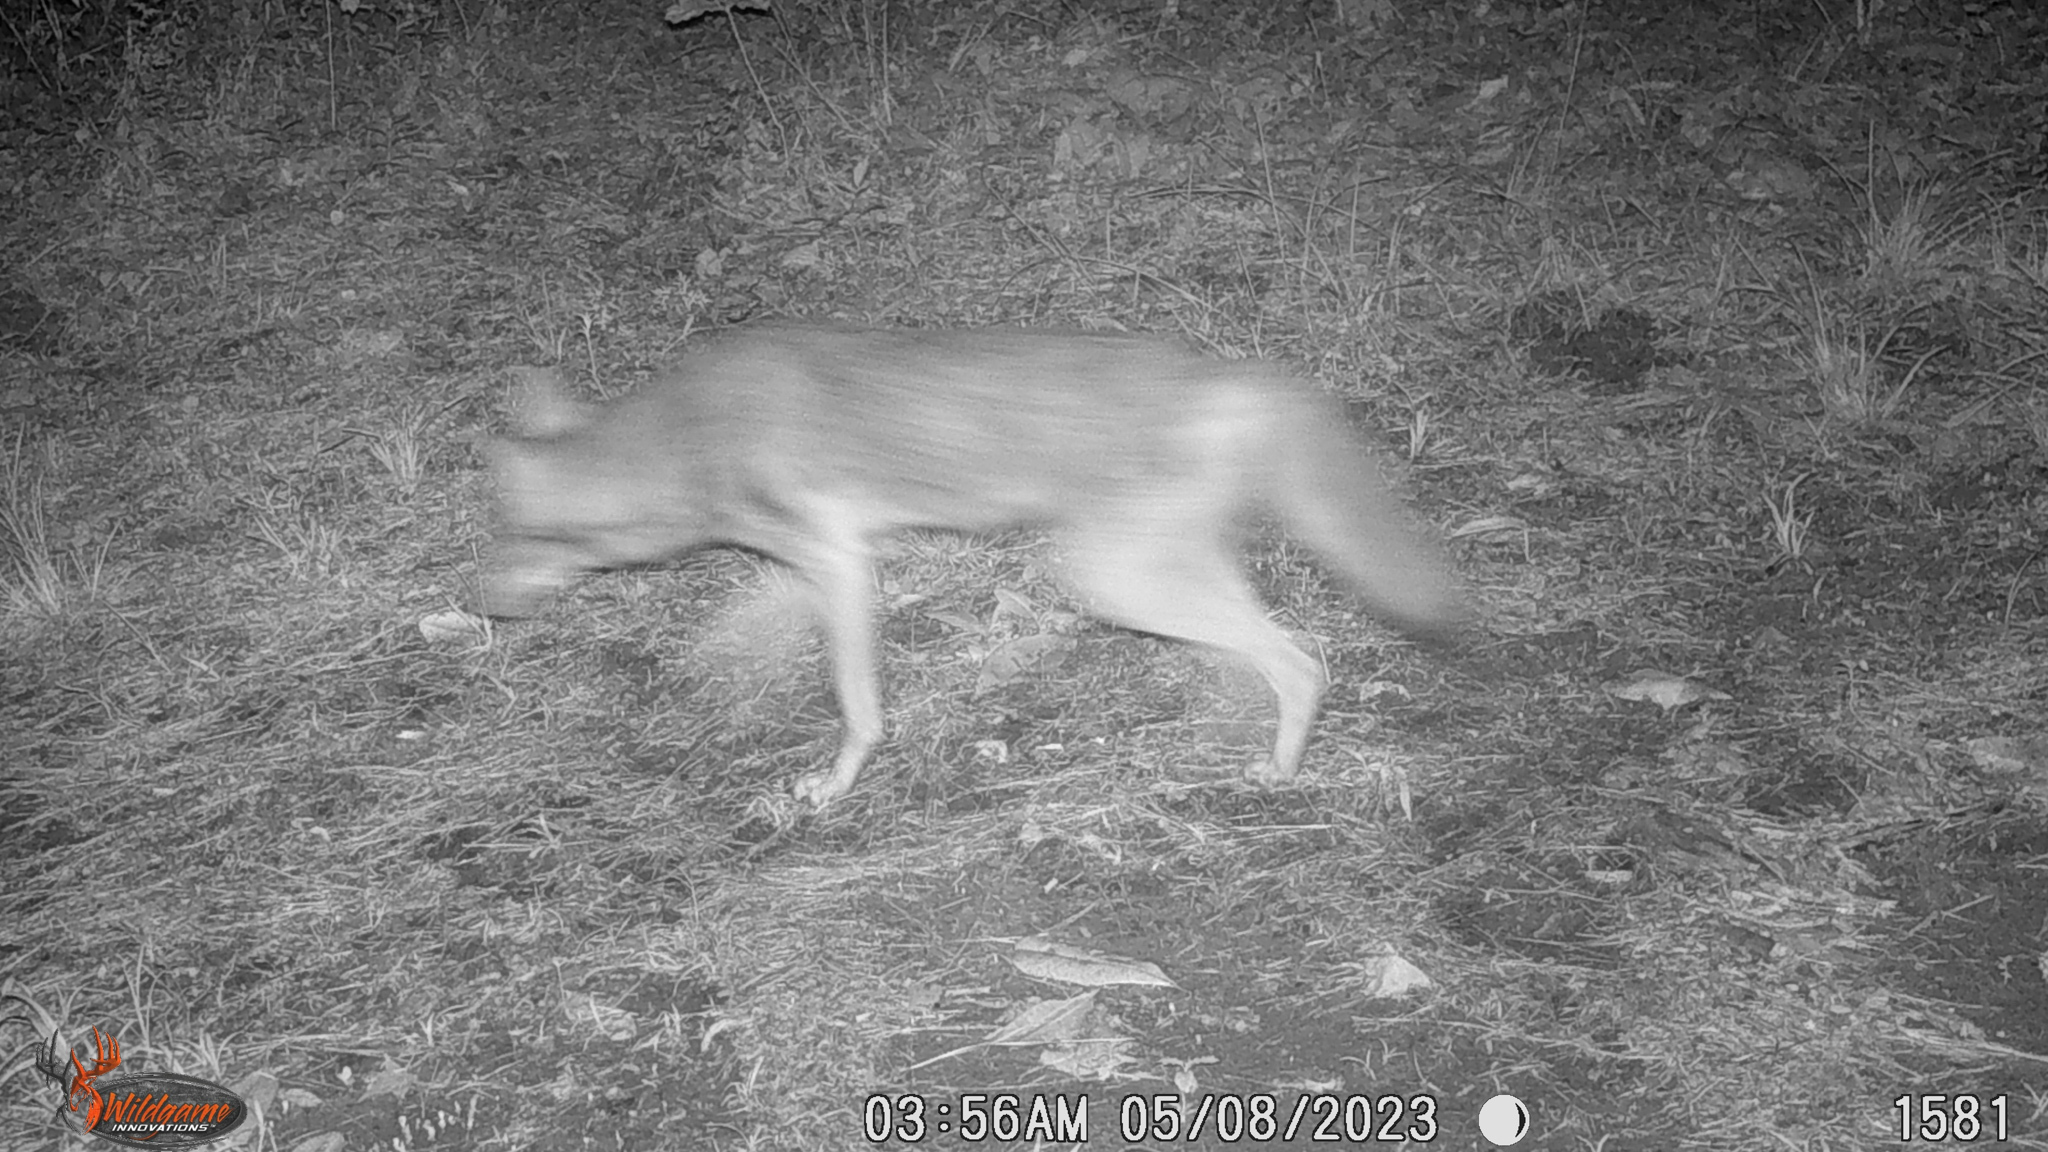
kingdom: Animalia
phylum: Chordata
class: Mammalia
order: Carnivora
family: Canidae
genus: Canis
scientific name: Canis latrans
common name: Coyote
